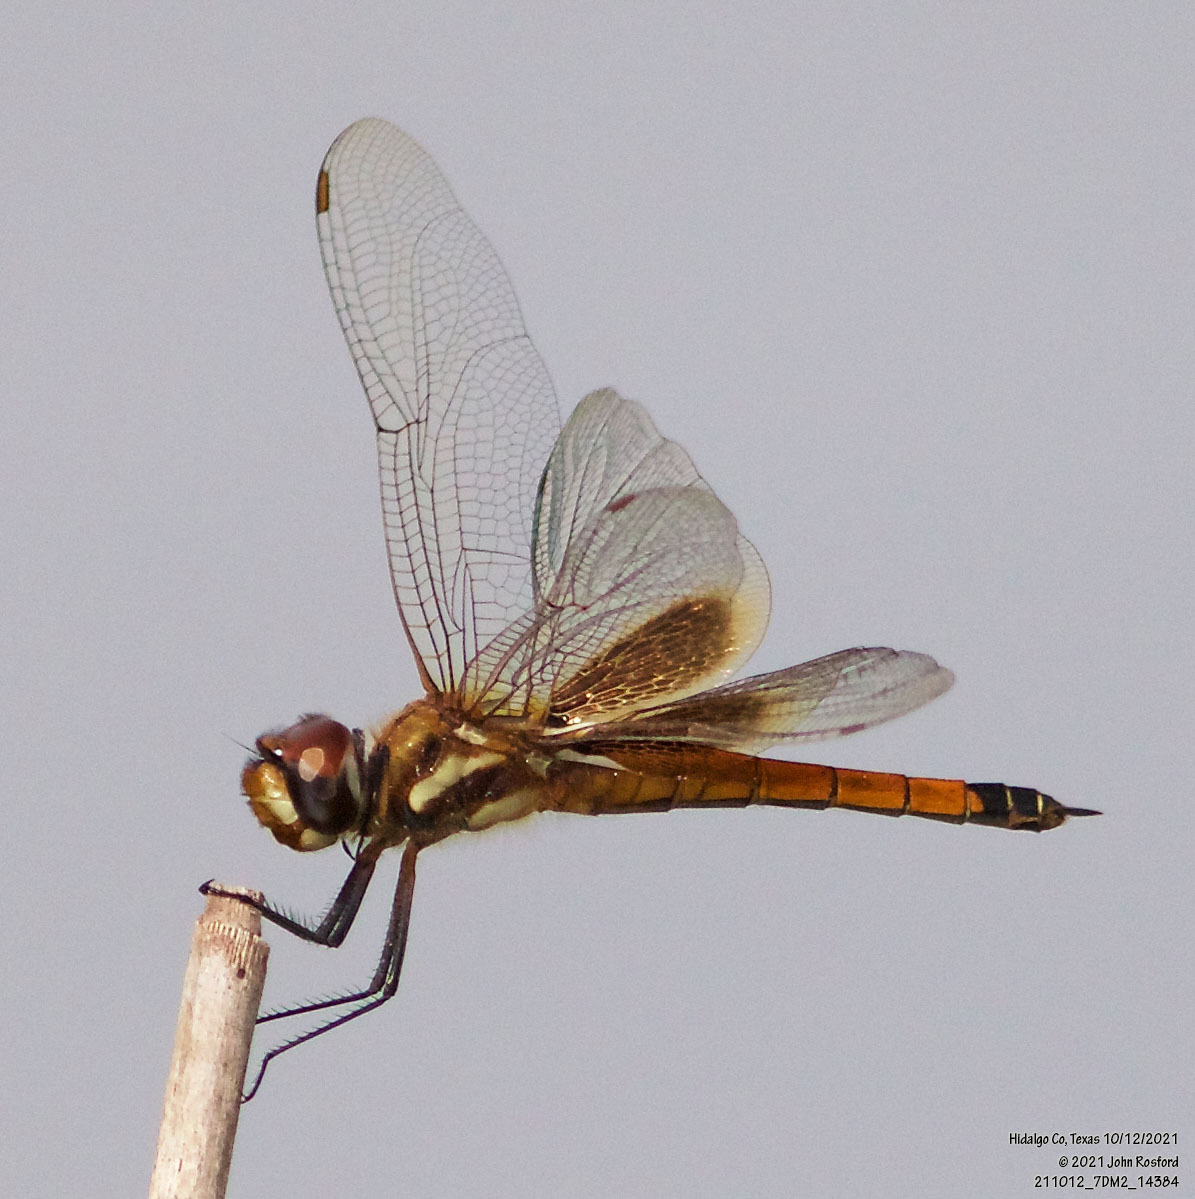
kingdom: Animalia
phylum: Arthropoda
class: Insecta
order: Odonata
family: Libellulidae
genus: Tramea
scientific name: Tramea darwini
